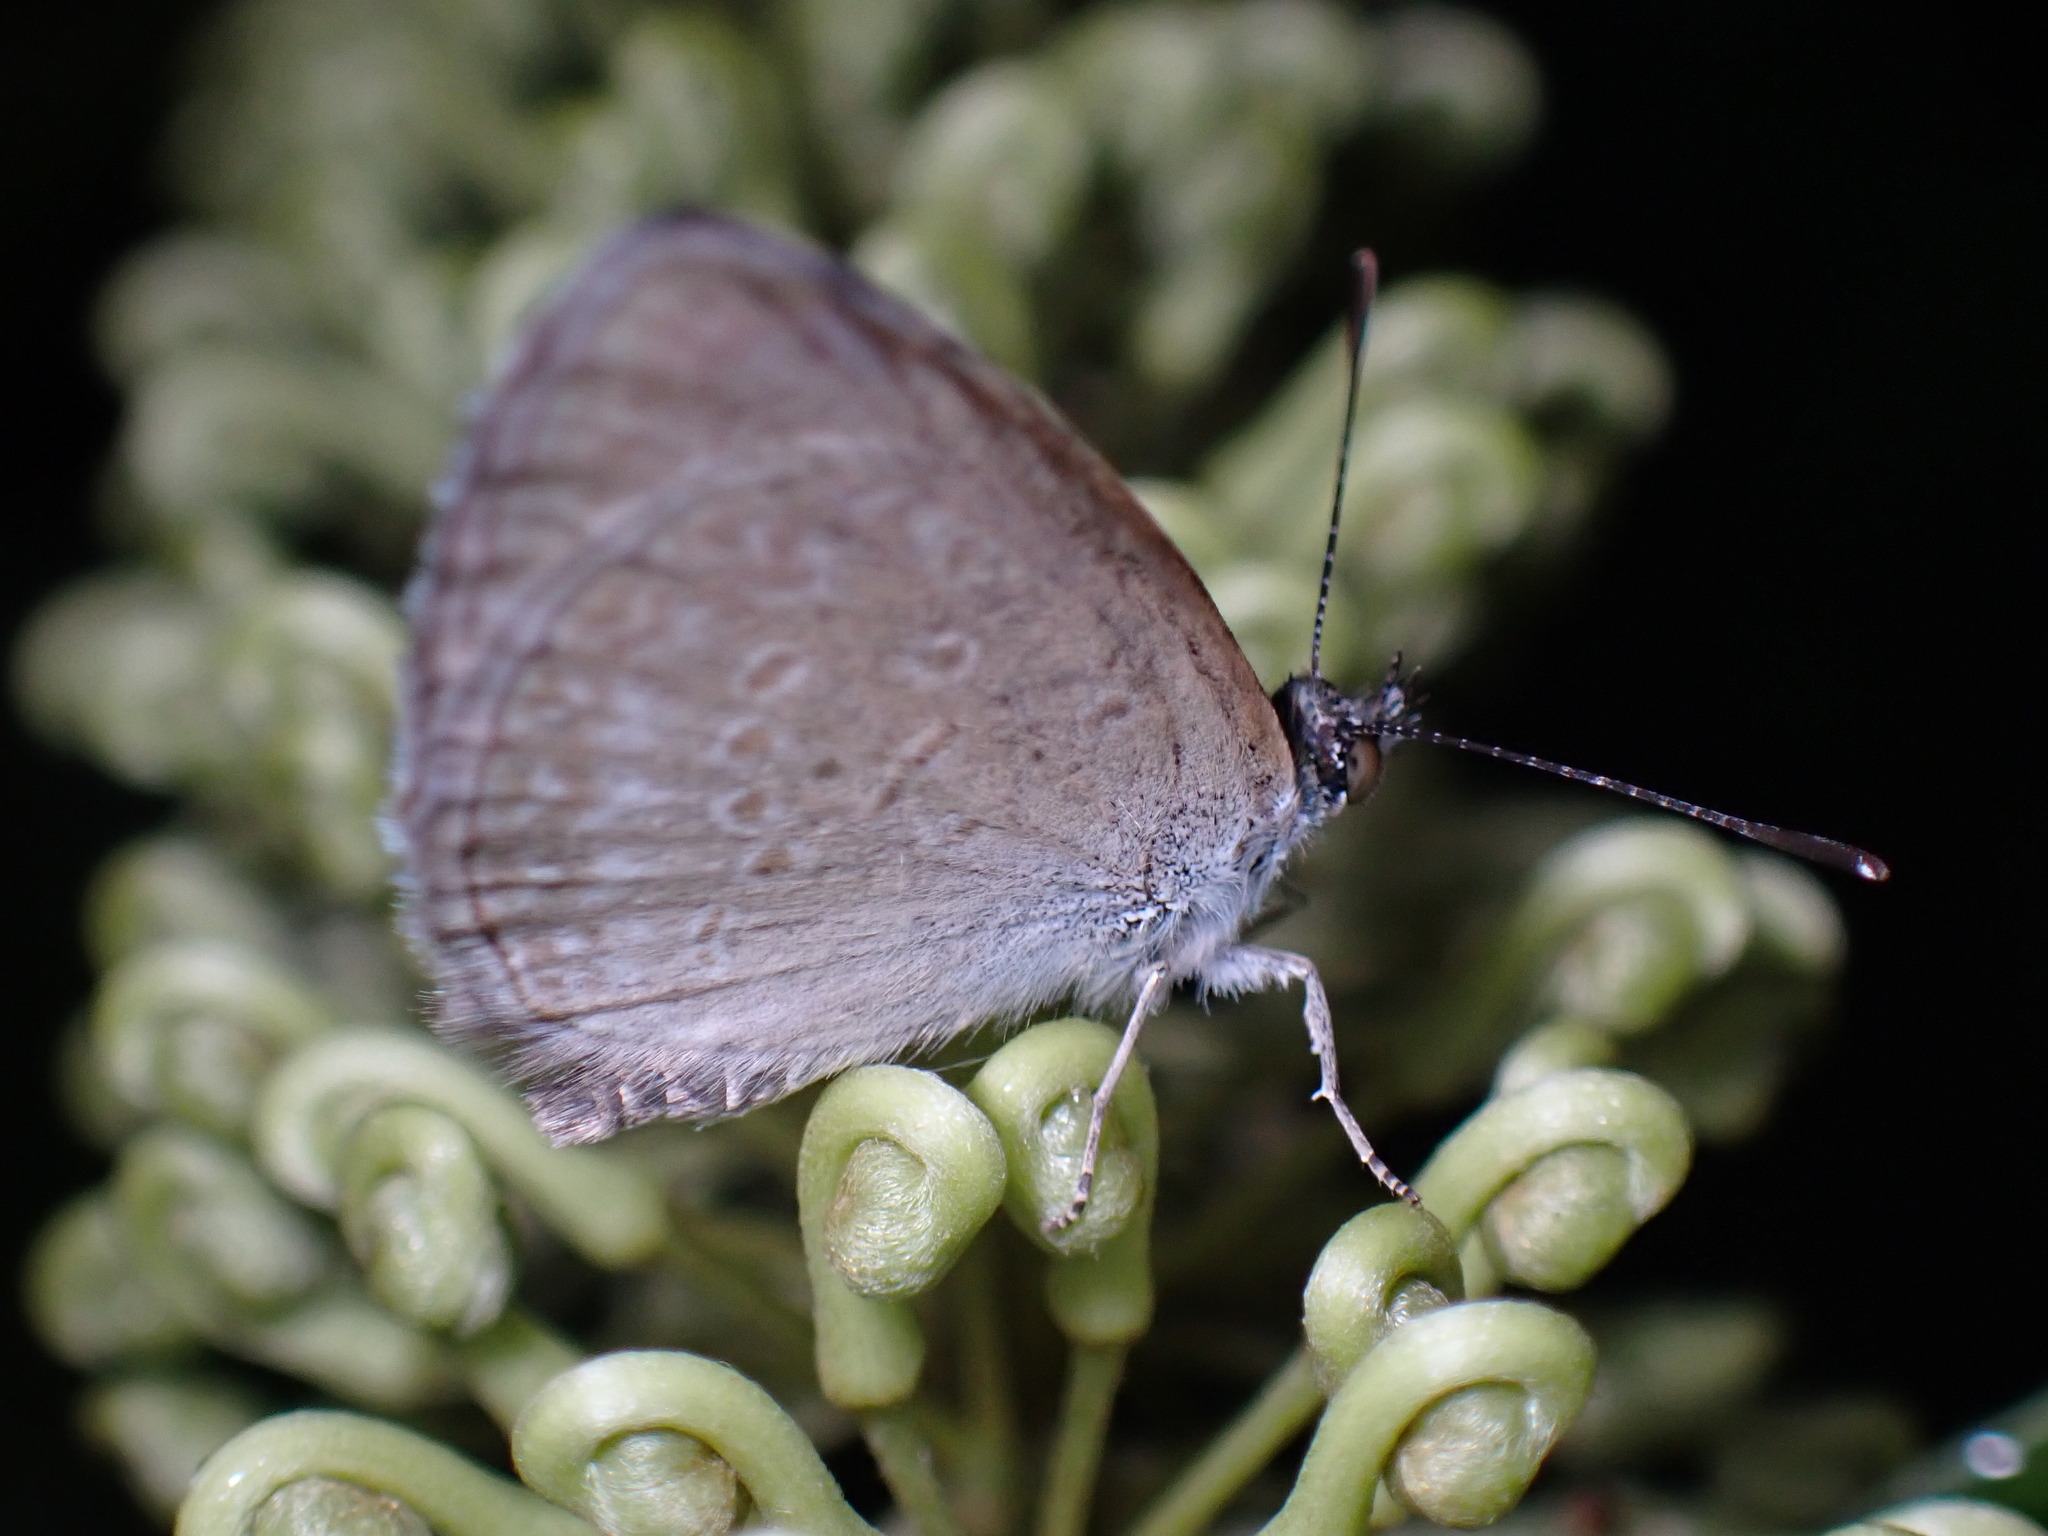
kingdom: Animalia
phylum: Arthropoda
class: Insecta
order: Lepidoptera
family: Lycaenidae
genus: Zizina
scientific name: Zizina otis
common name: Lesser grass blue
